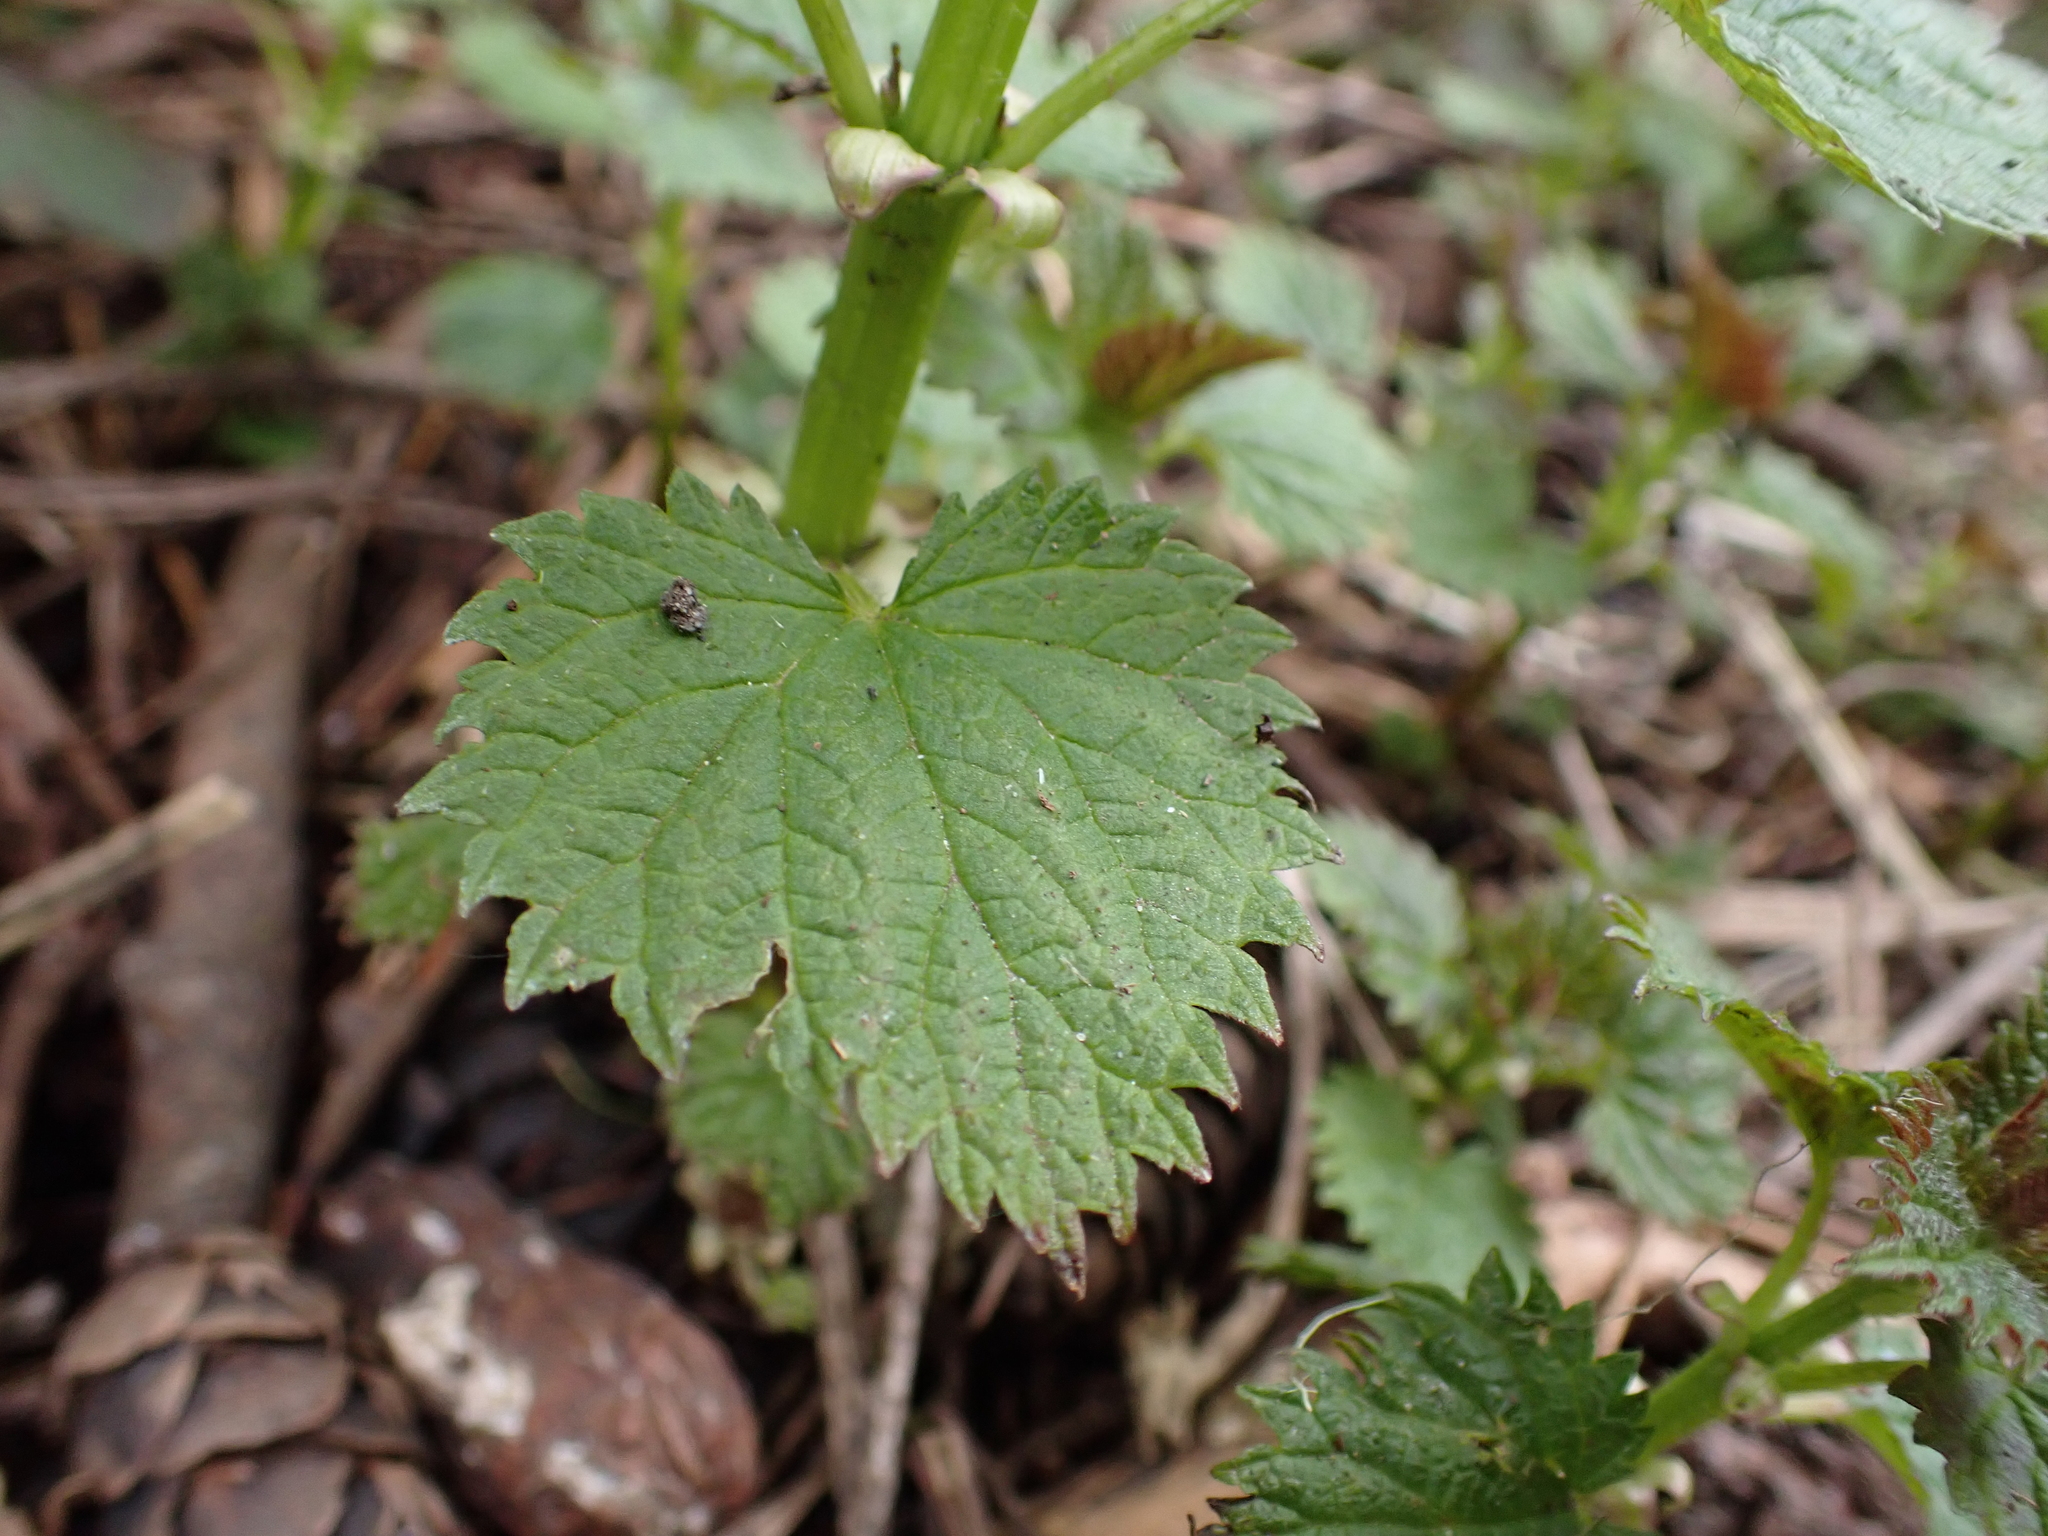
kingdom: Plantae
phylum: Tracheophyta
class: Magnoliopsida
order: Rosales
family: Urticaceae
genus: Urtica
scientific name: Urtica dioica
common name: Common nettle
